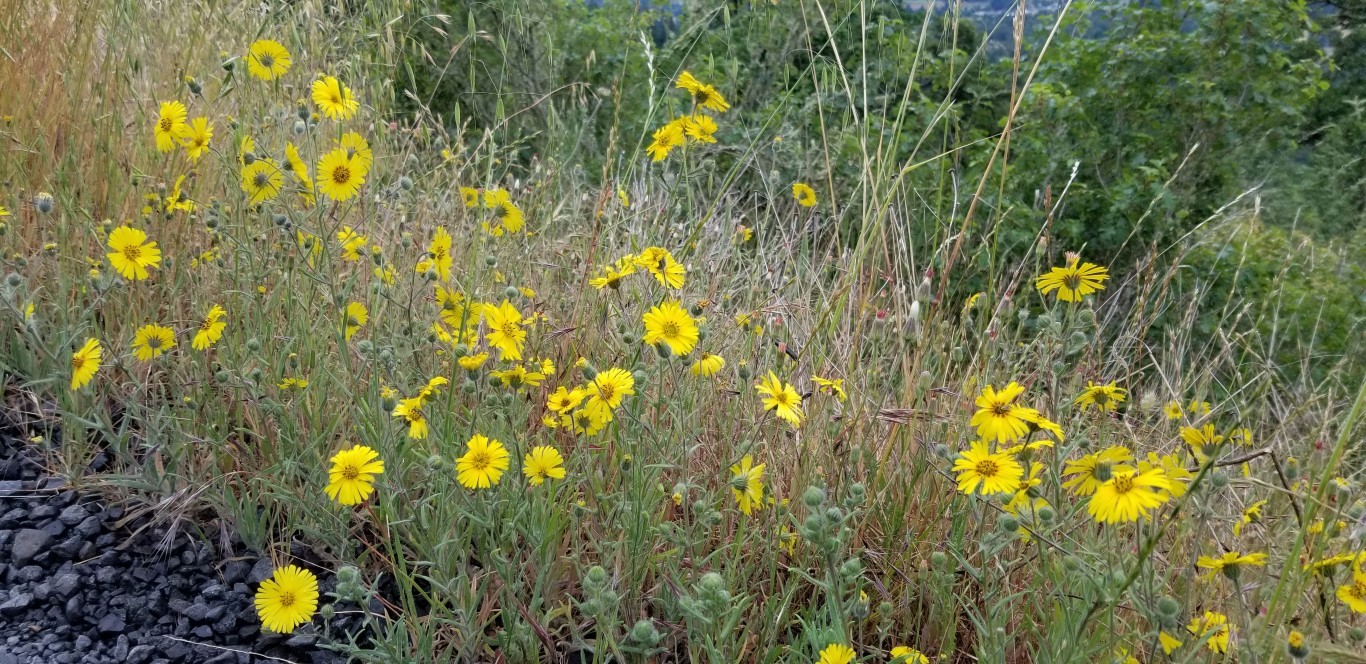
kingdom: Plantae
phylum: Tracheophyta
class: Magnoliopsida
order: Asterales
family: Asteraceae
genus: Madia
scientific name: Madia elegans
